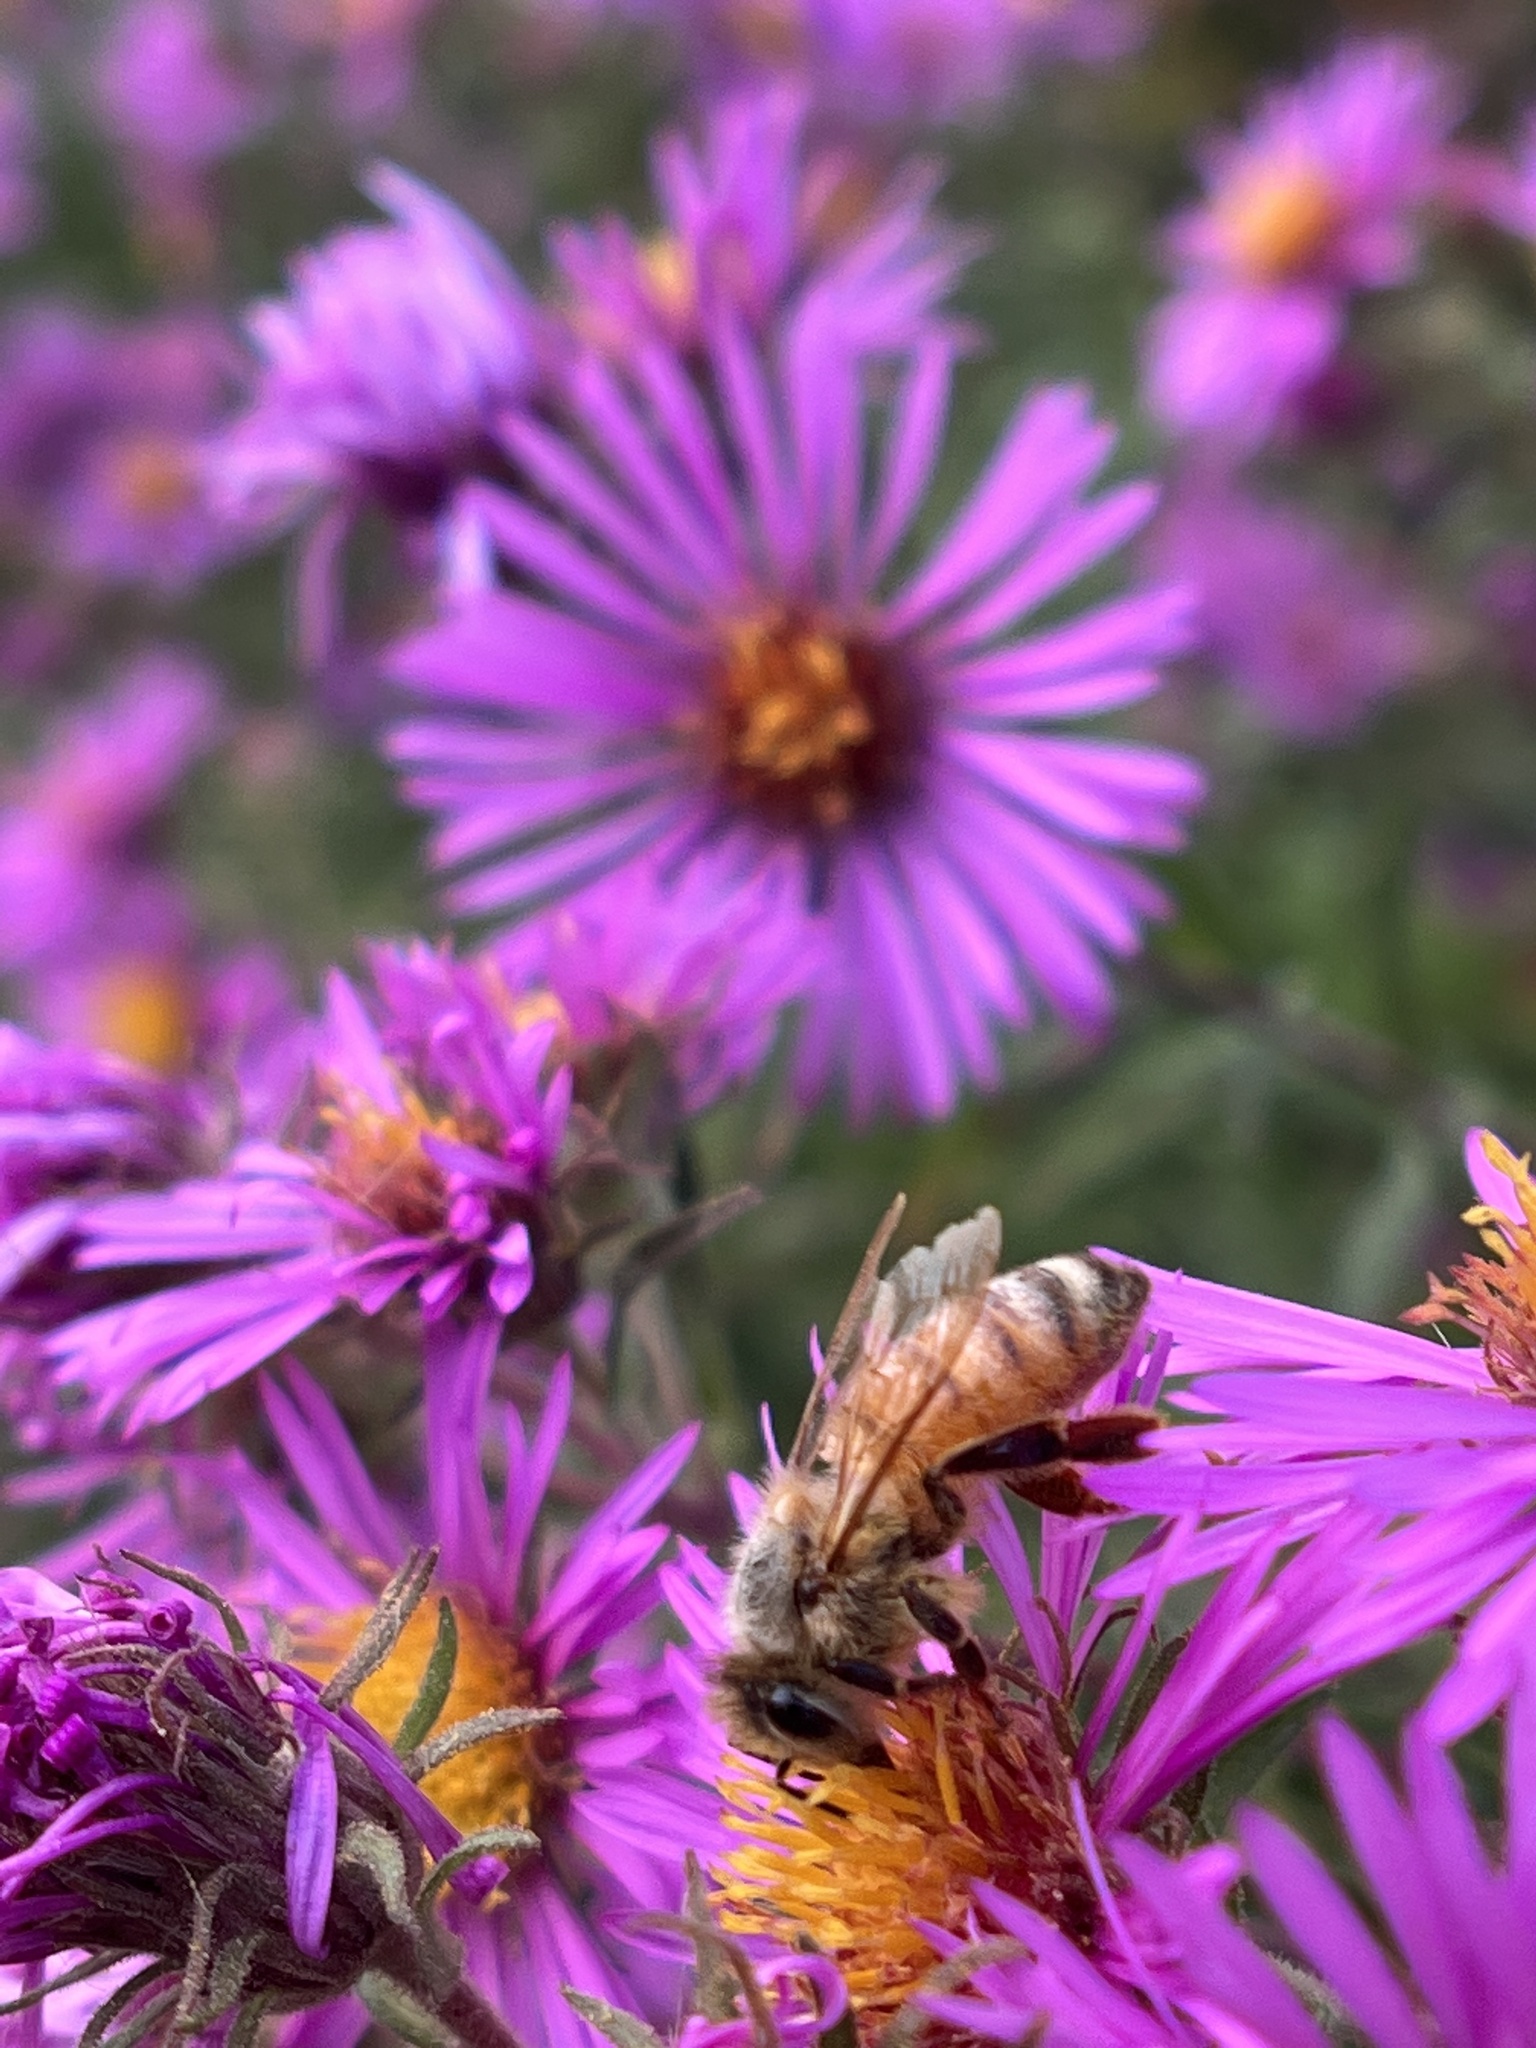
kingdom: Animalia
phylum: Arthropoda
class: Insecta
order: Hymenoptera
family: Apidae
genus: Apis
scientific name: Apis mellifera
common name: Honey bee
